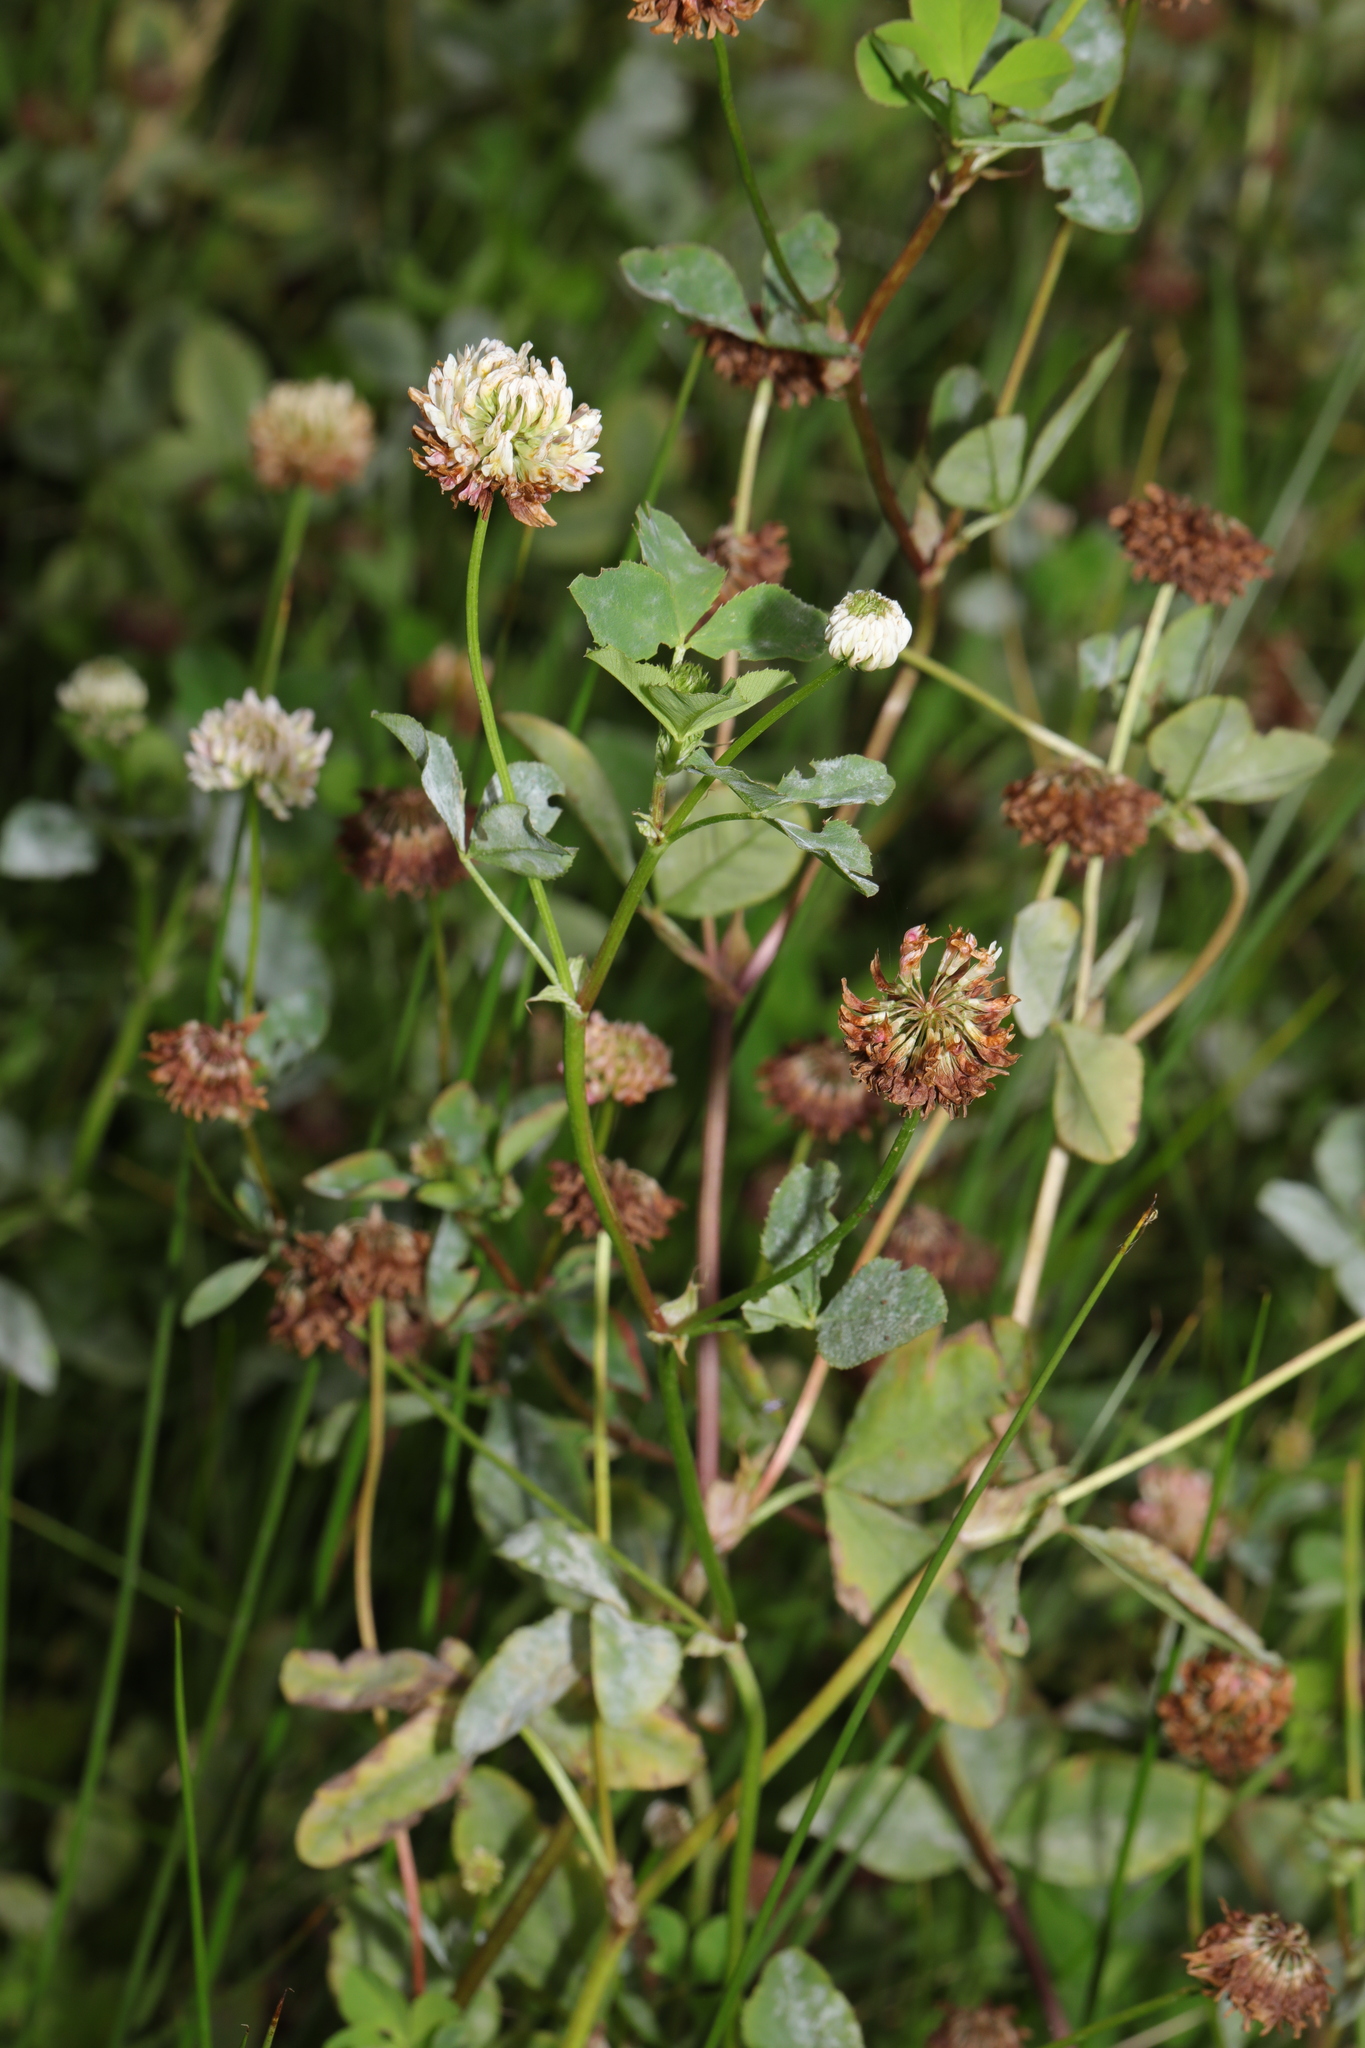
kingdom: Plantae
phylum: Tracheophyta
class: Magnoliopsida
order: Fabales
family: Fabaceae
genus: Trifolium
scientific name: Trifolium hybridum
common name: Alsike clover
